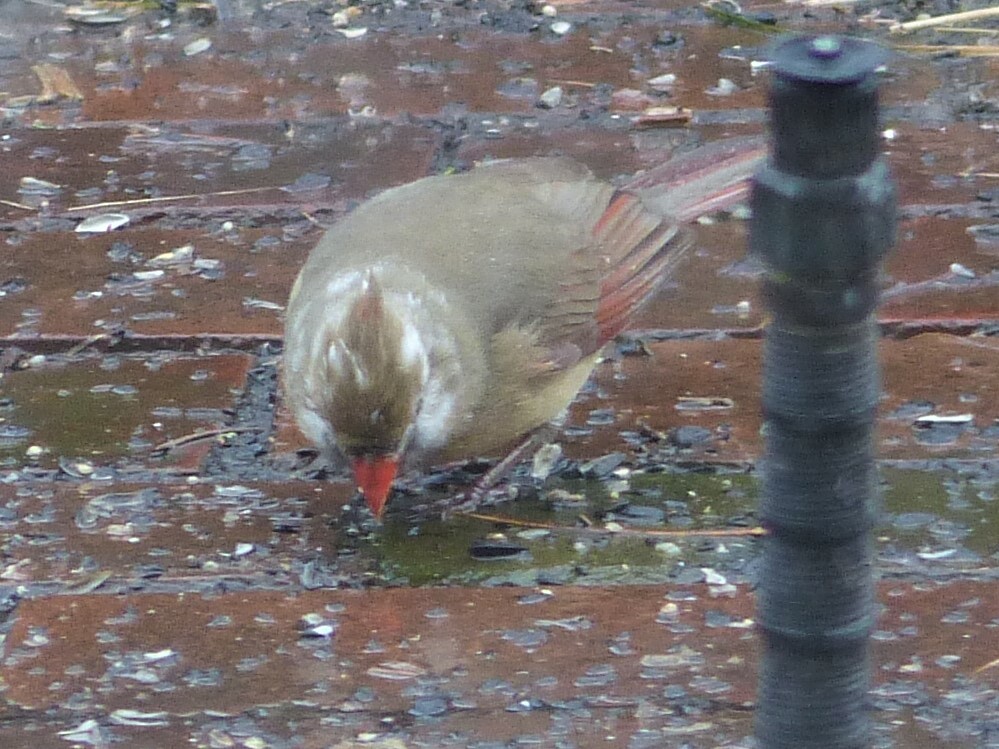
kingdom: Animalia
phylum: Chordata
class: Aves
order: Passeriformes
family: Cardinalidae
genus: Cardinalis
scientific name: Cardinalis cardinalis
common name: Northern cardinal
